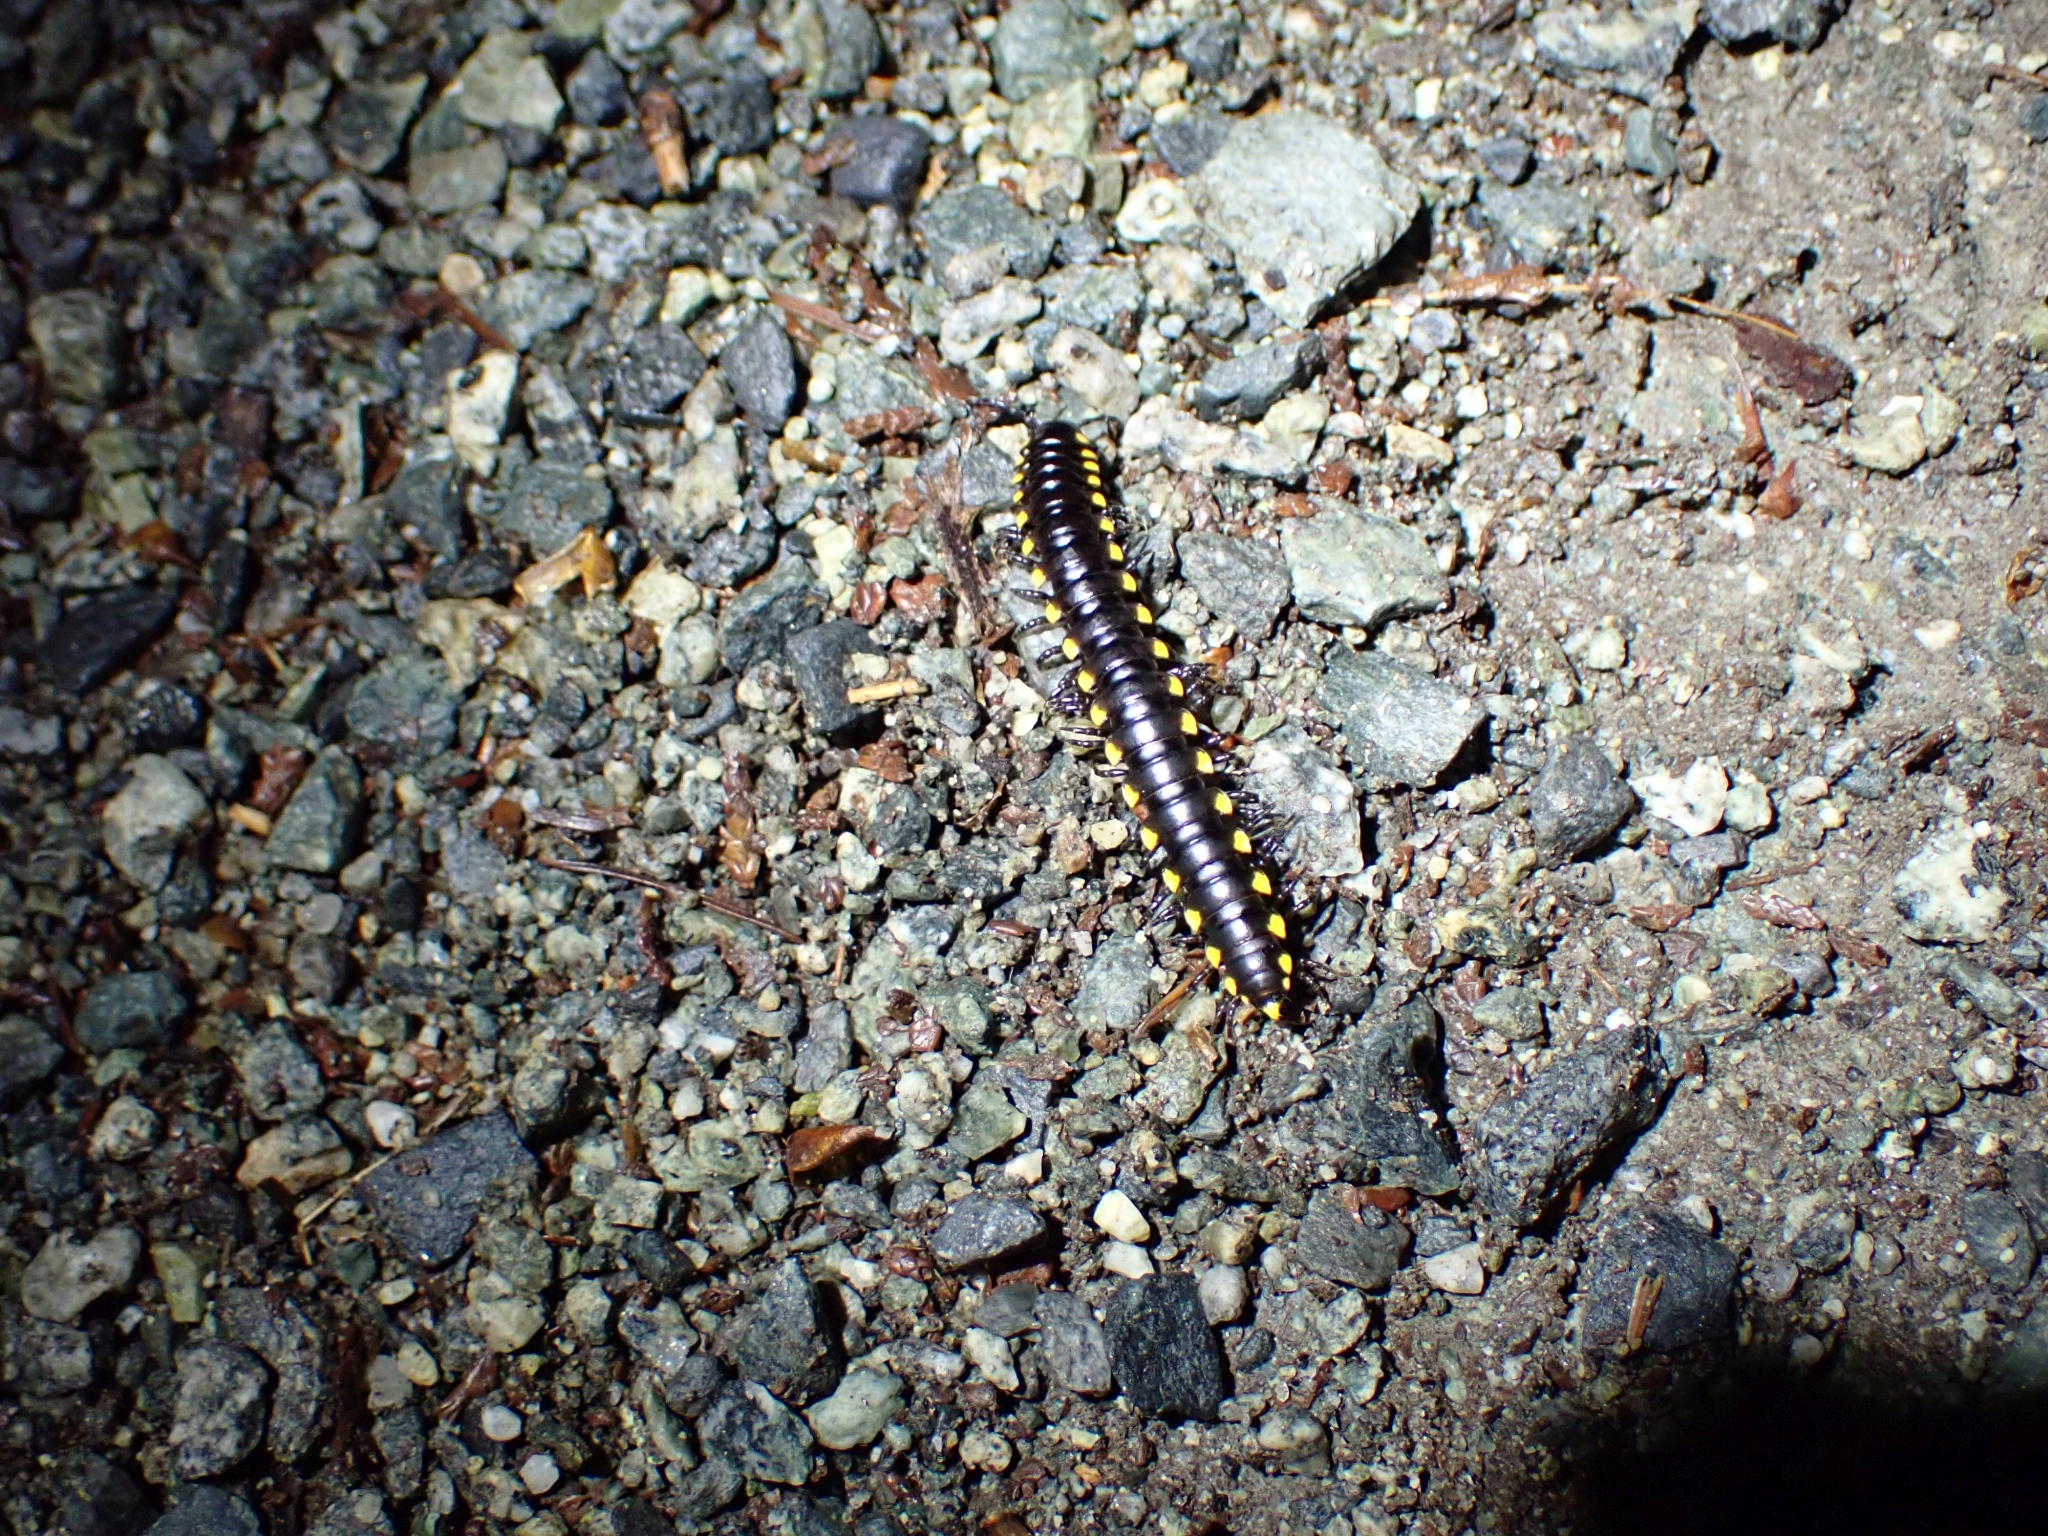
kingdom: Animalia
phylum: Arthropoda
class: Diplopoda
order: Polydesmida
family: Xystodesmidae
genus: Harpaphe
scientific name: Harpaphe haydeniana
